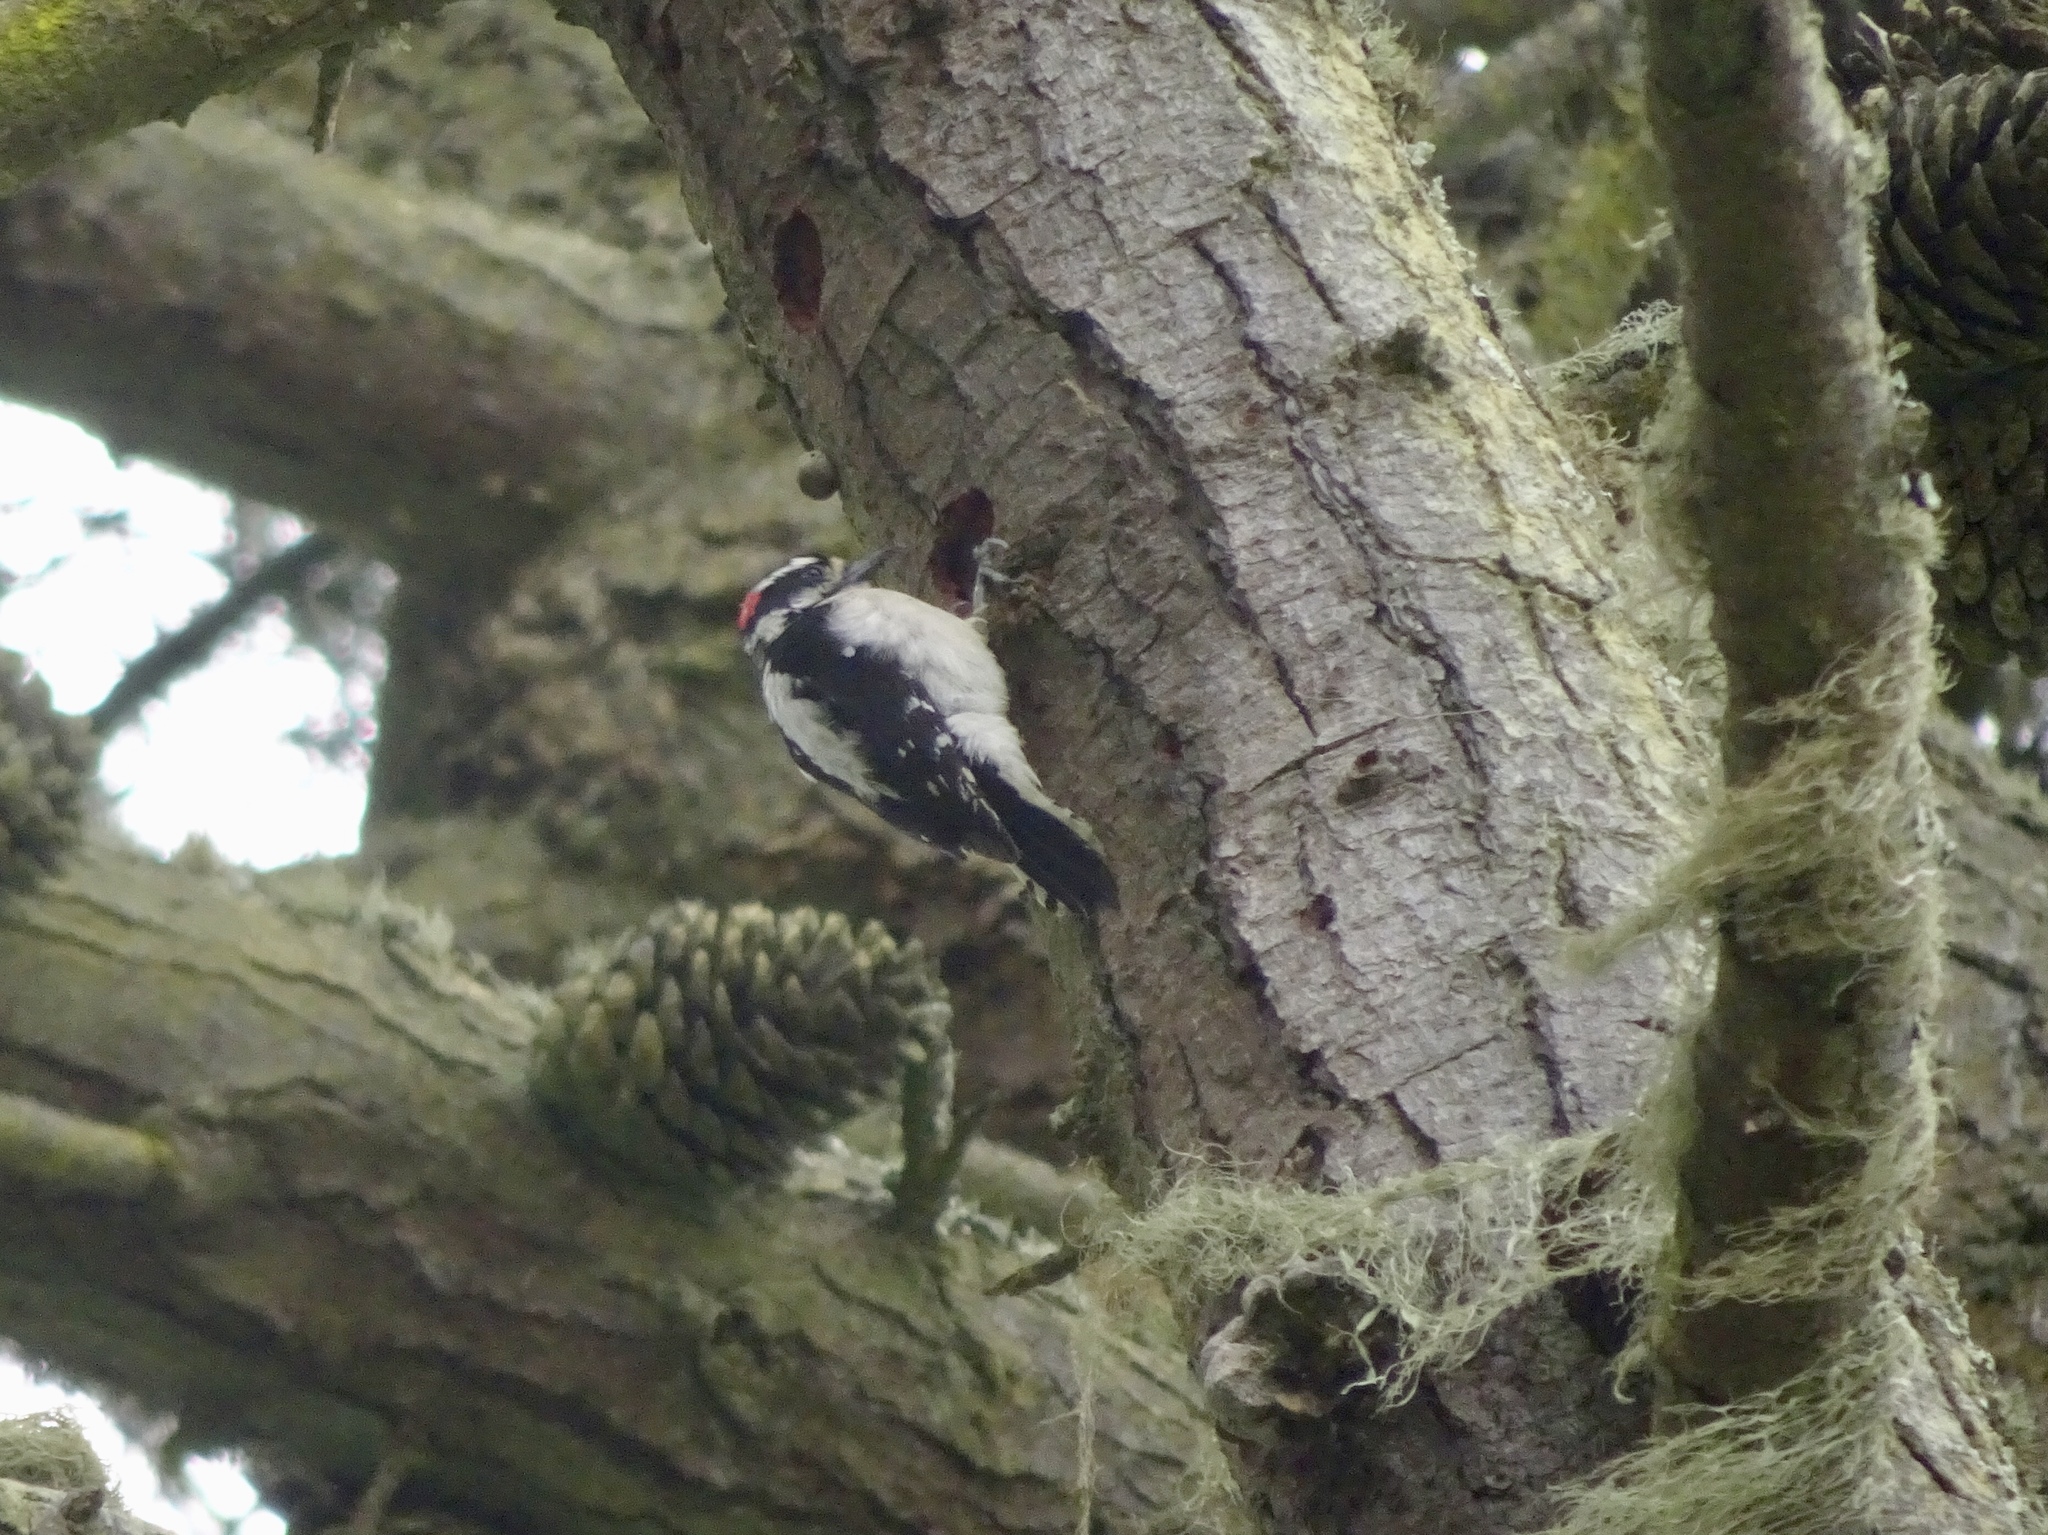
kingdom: Animalia
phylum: Chordata
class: Aves
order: Piciformes
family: Picidae
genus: Dryobates
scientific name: Dryobates pubescens
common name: Downy woodpecker
